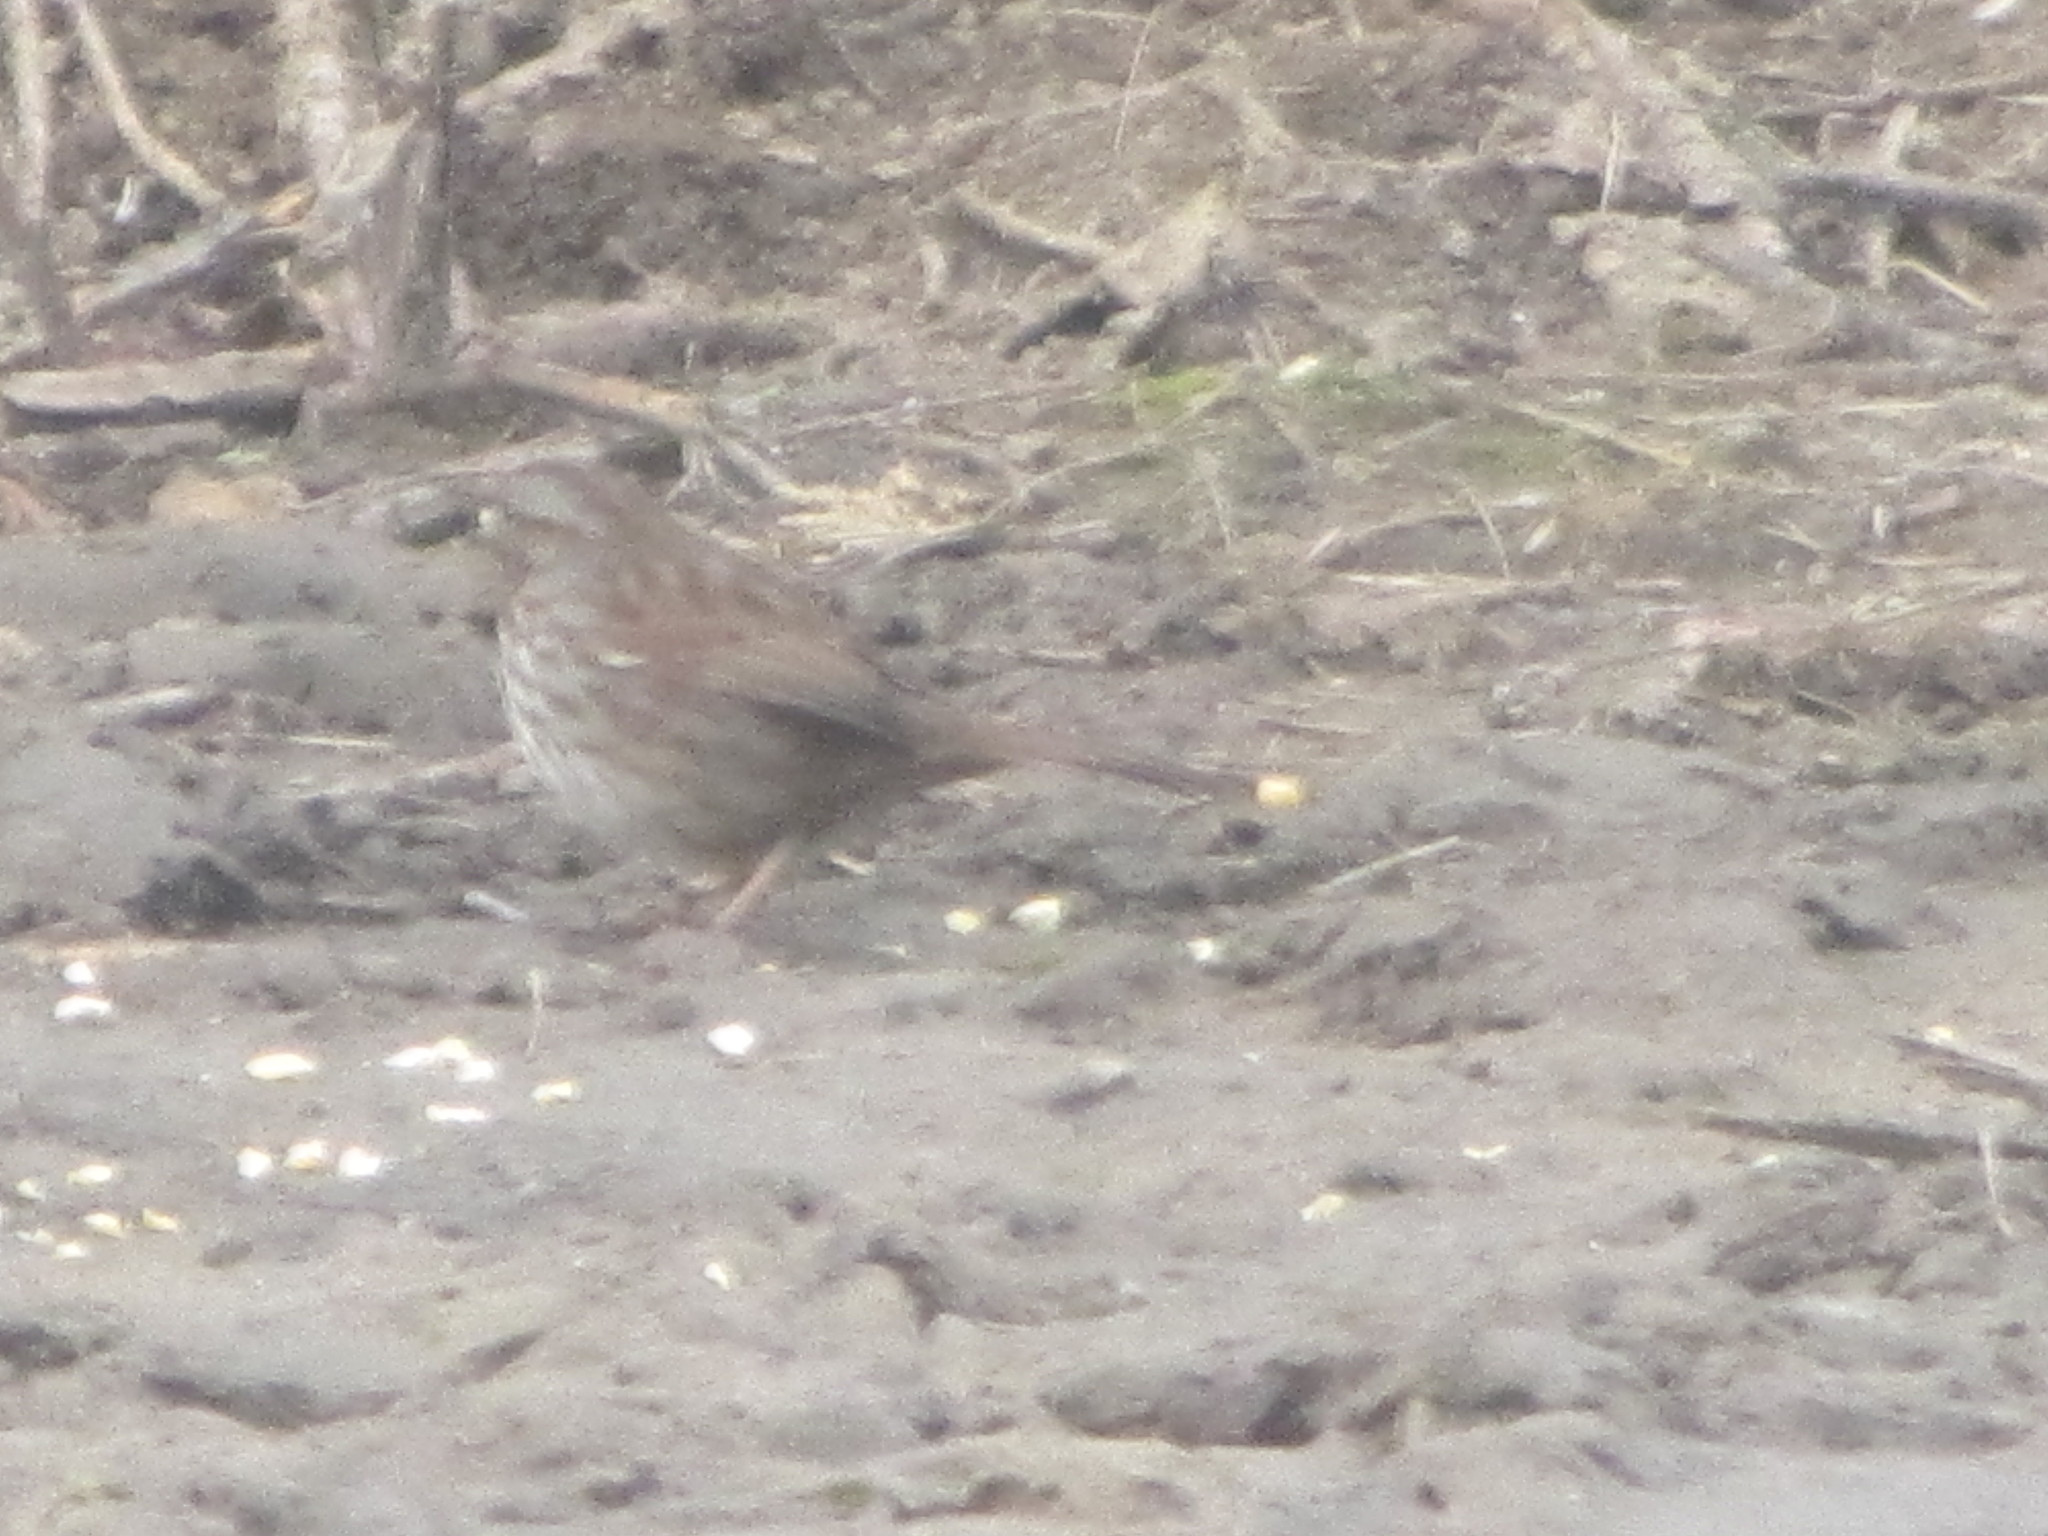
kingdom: Animalia
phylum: Chordata
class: Aves
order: Passeriformes
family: Passerellidae
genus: Melospiza
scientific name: Melospiza melodia
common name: Song sparrow
